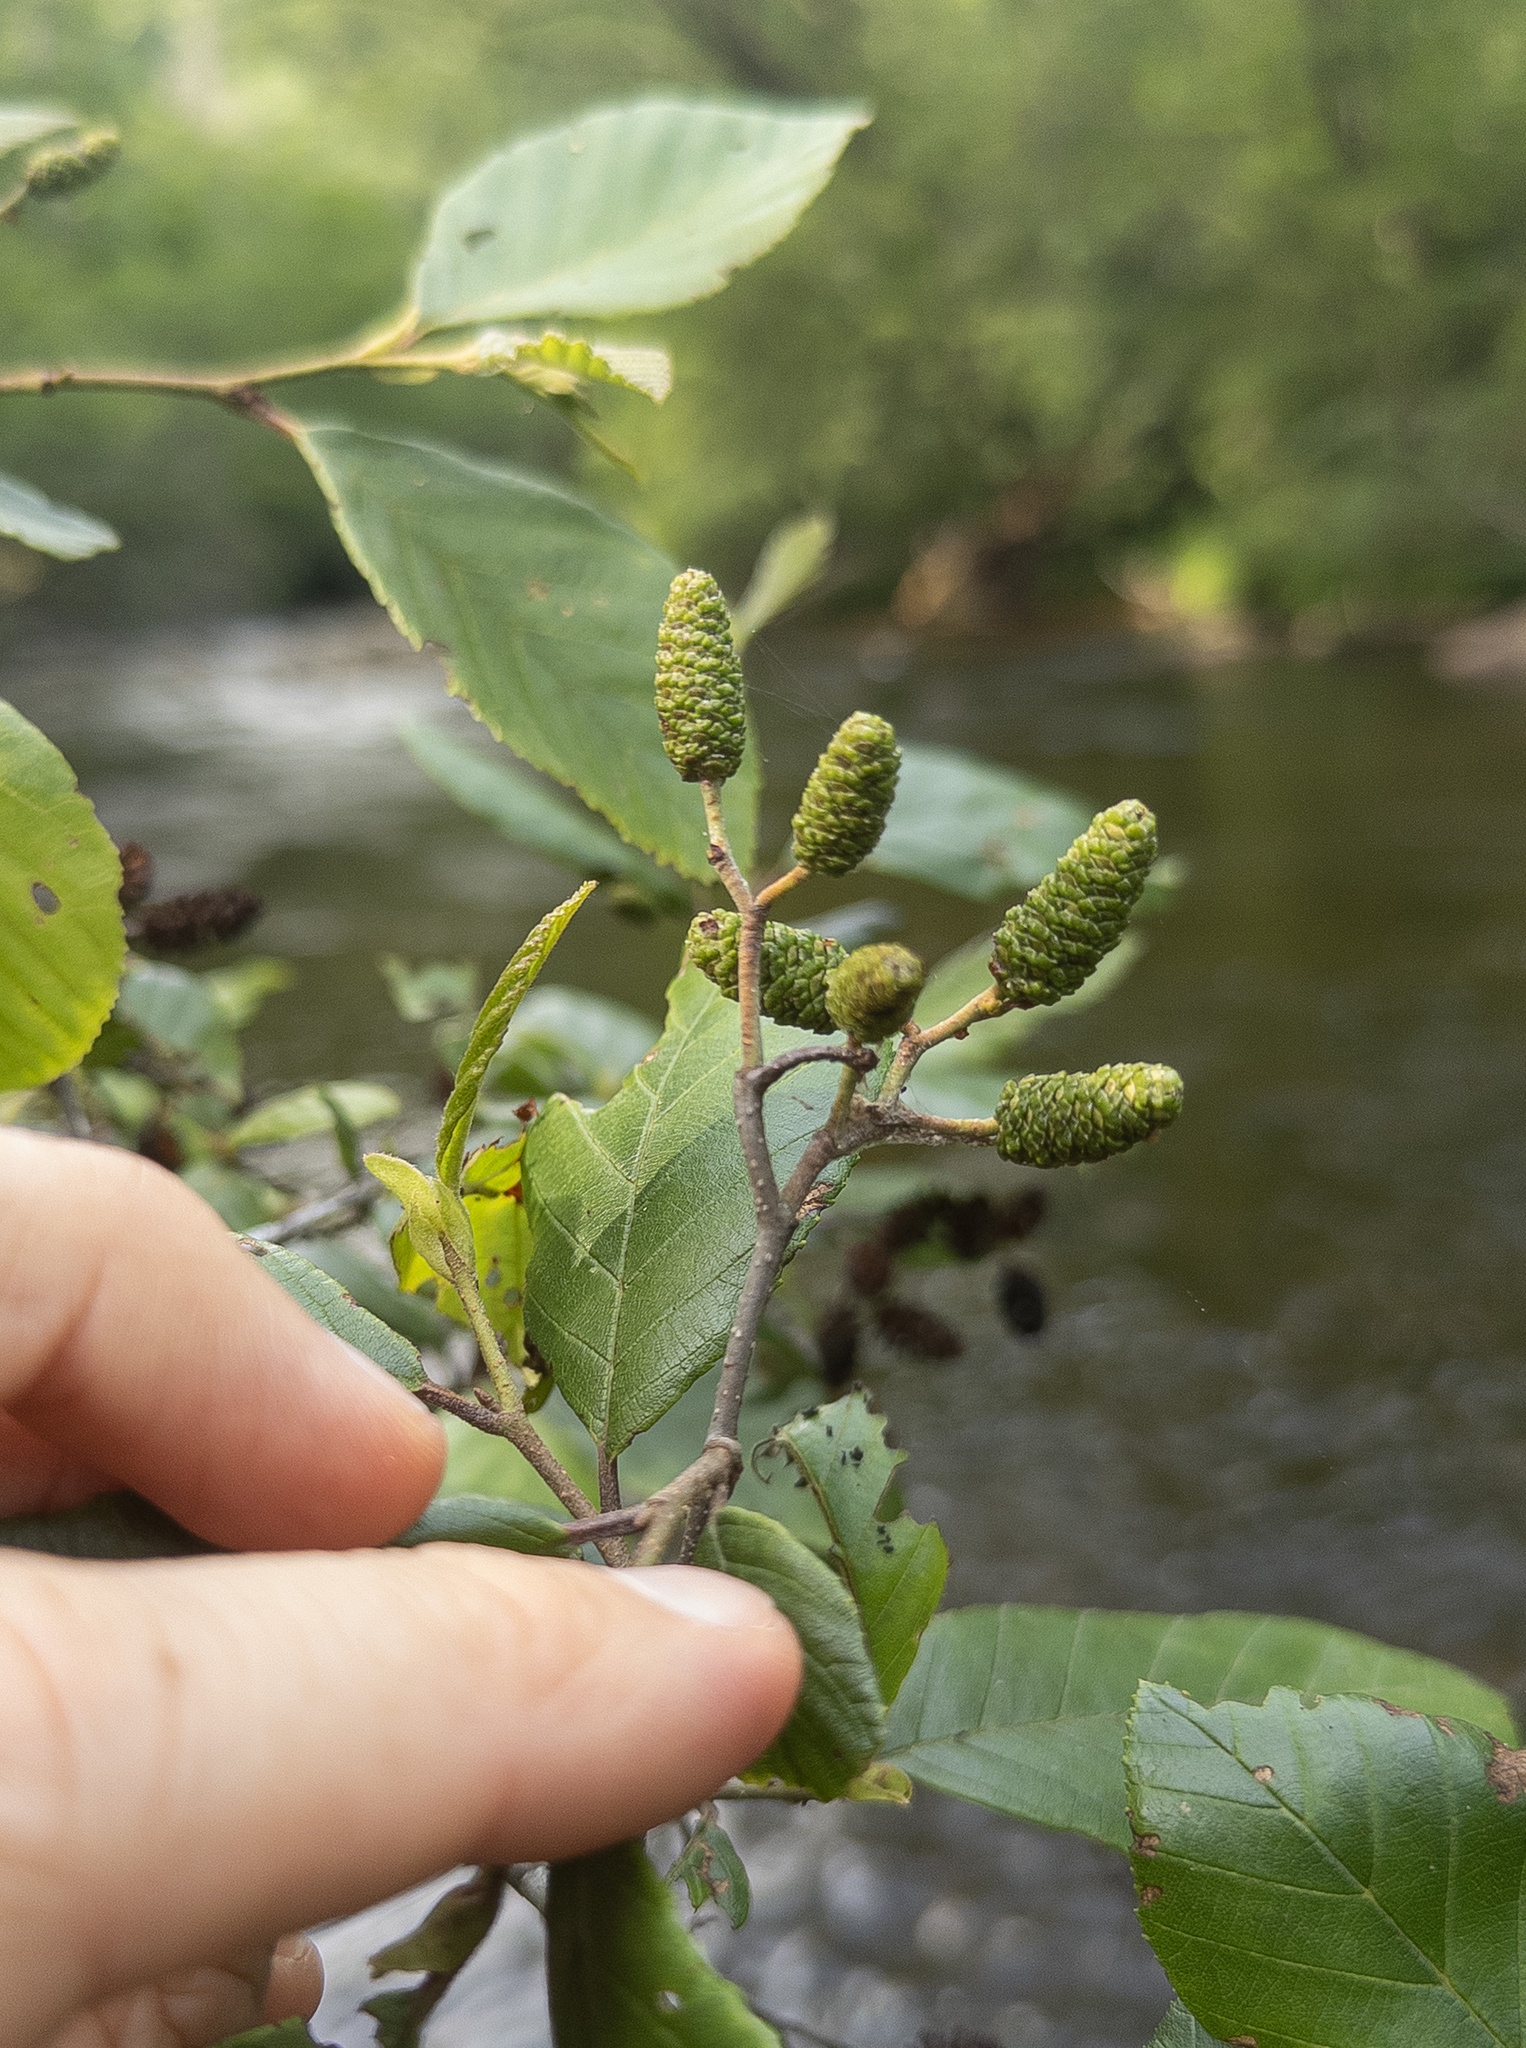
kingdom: Plantae
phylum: Tracheophyta
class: Magnoliopsida
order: Fagales
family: Betulaceae
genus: Alnus
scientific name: Alnus serrulata
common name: Hazel alder
